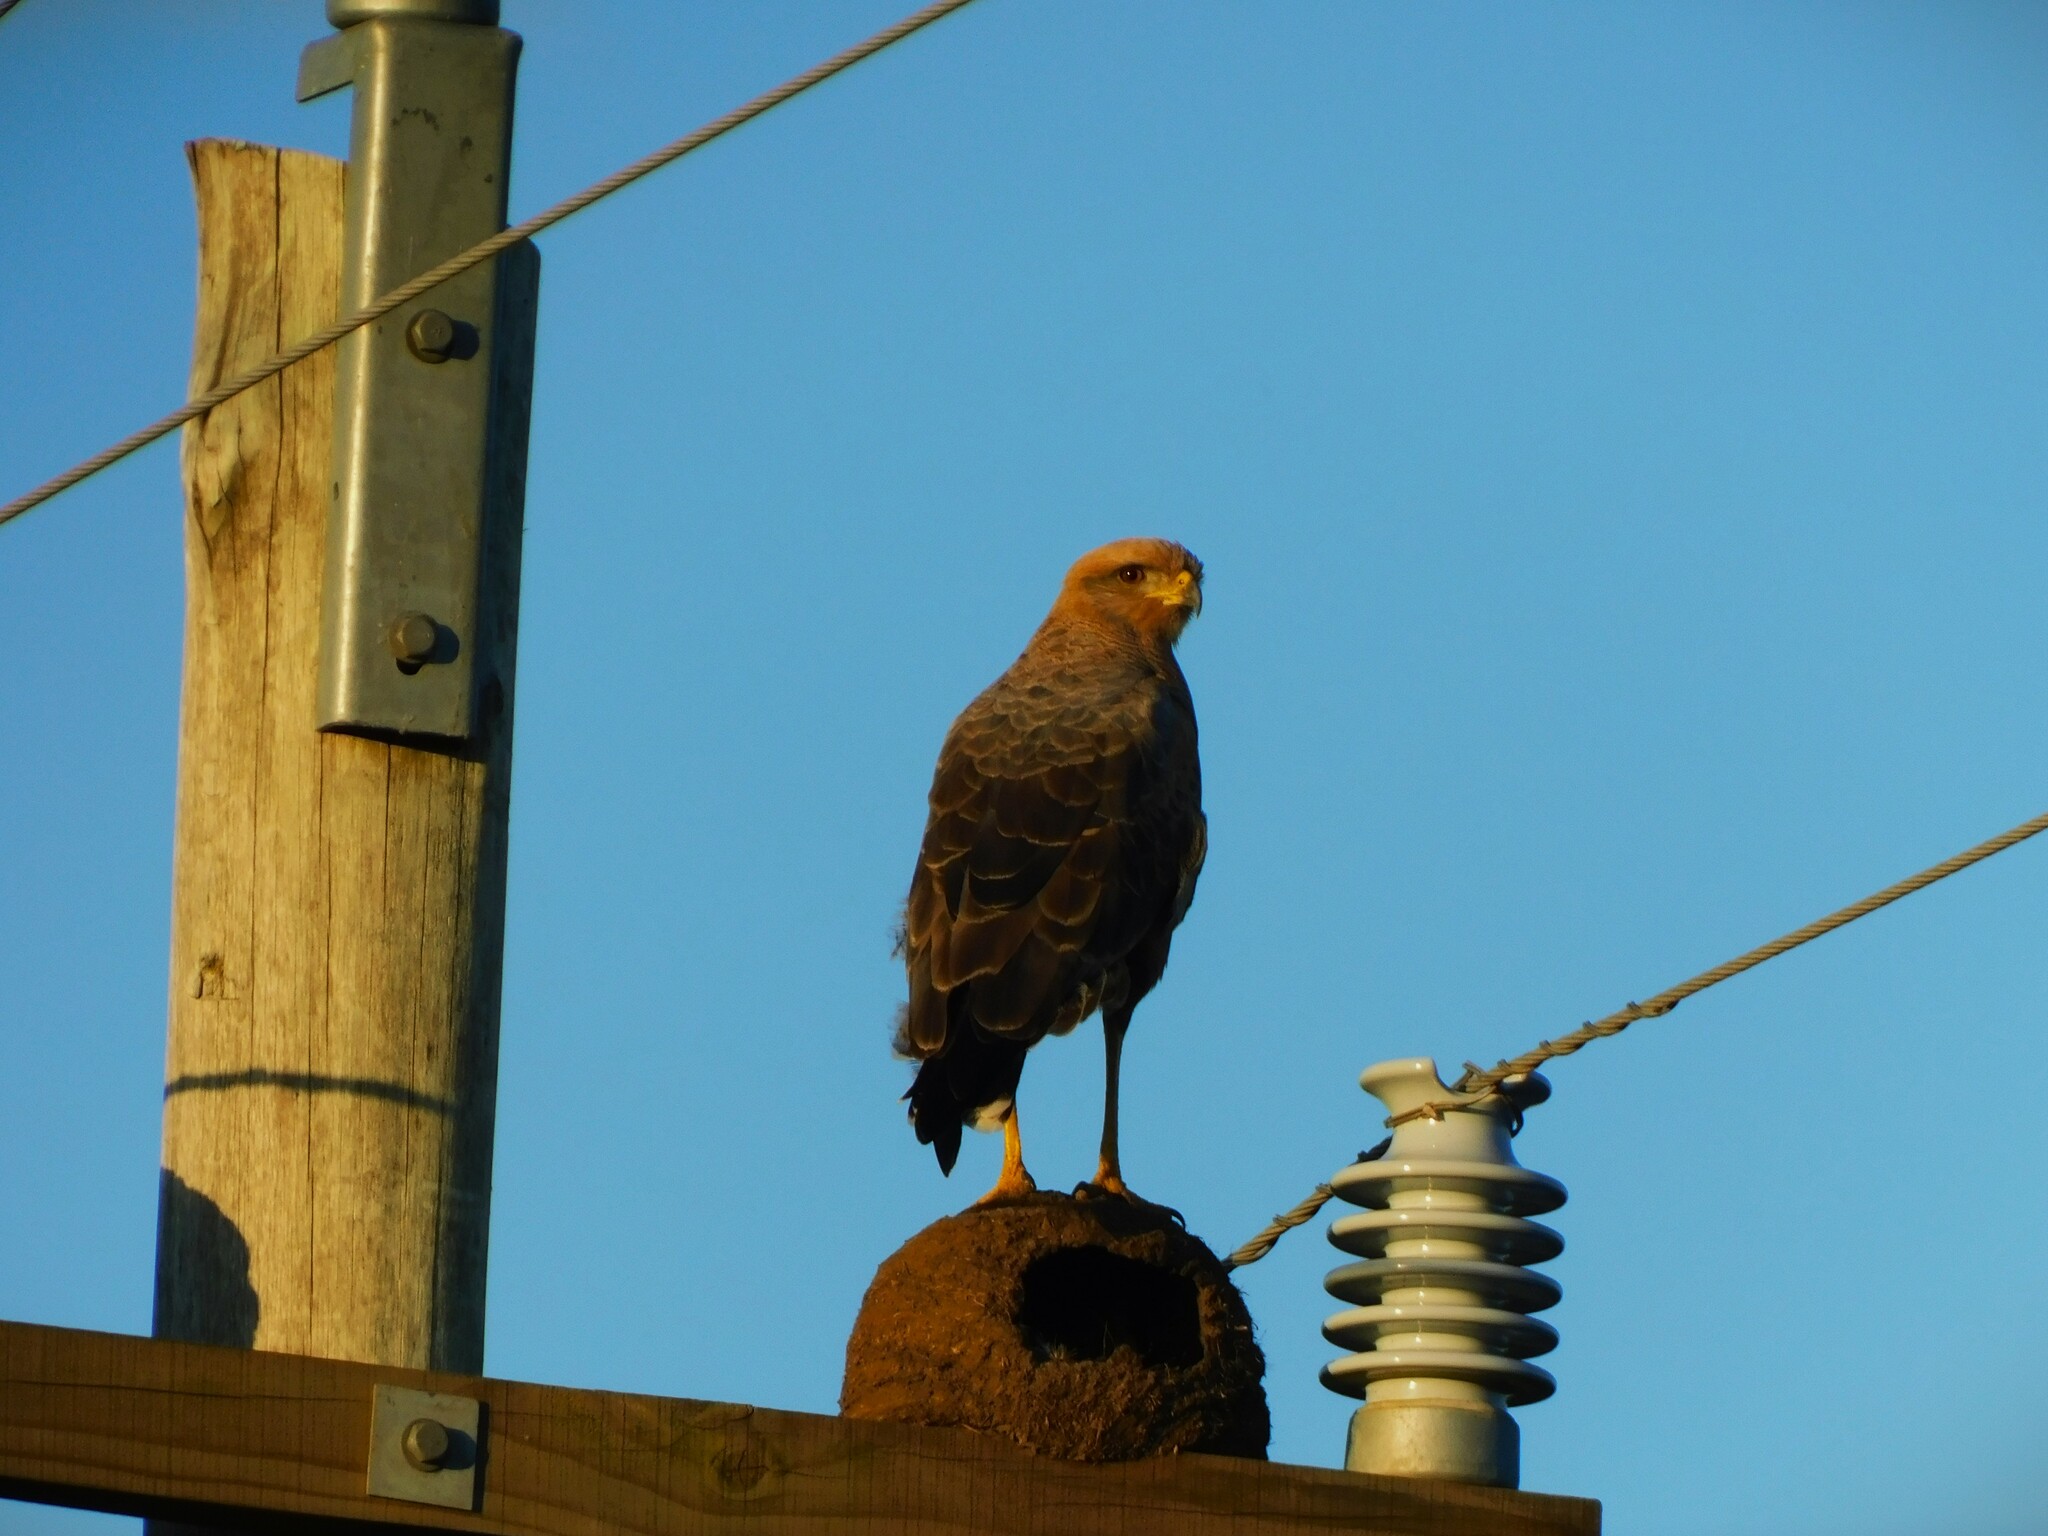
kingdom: Animalia
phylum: Chordata
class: Aves
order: Accipitriformes
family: Accipitridae
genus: Buteogallus
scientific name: Buteogallus meridionalis
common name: Savanna hawk
